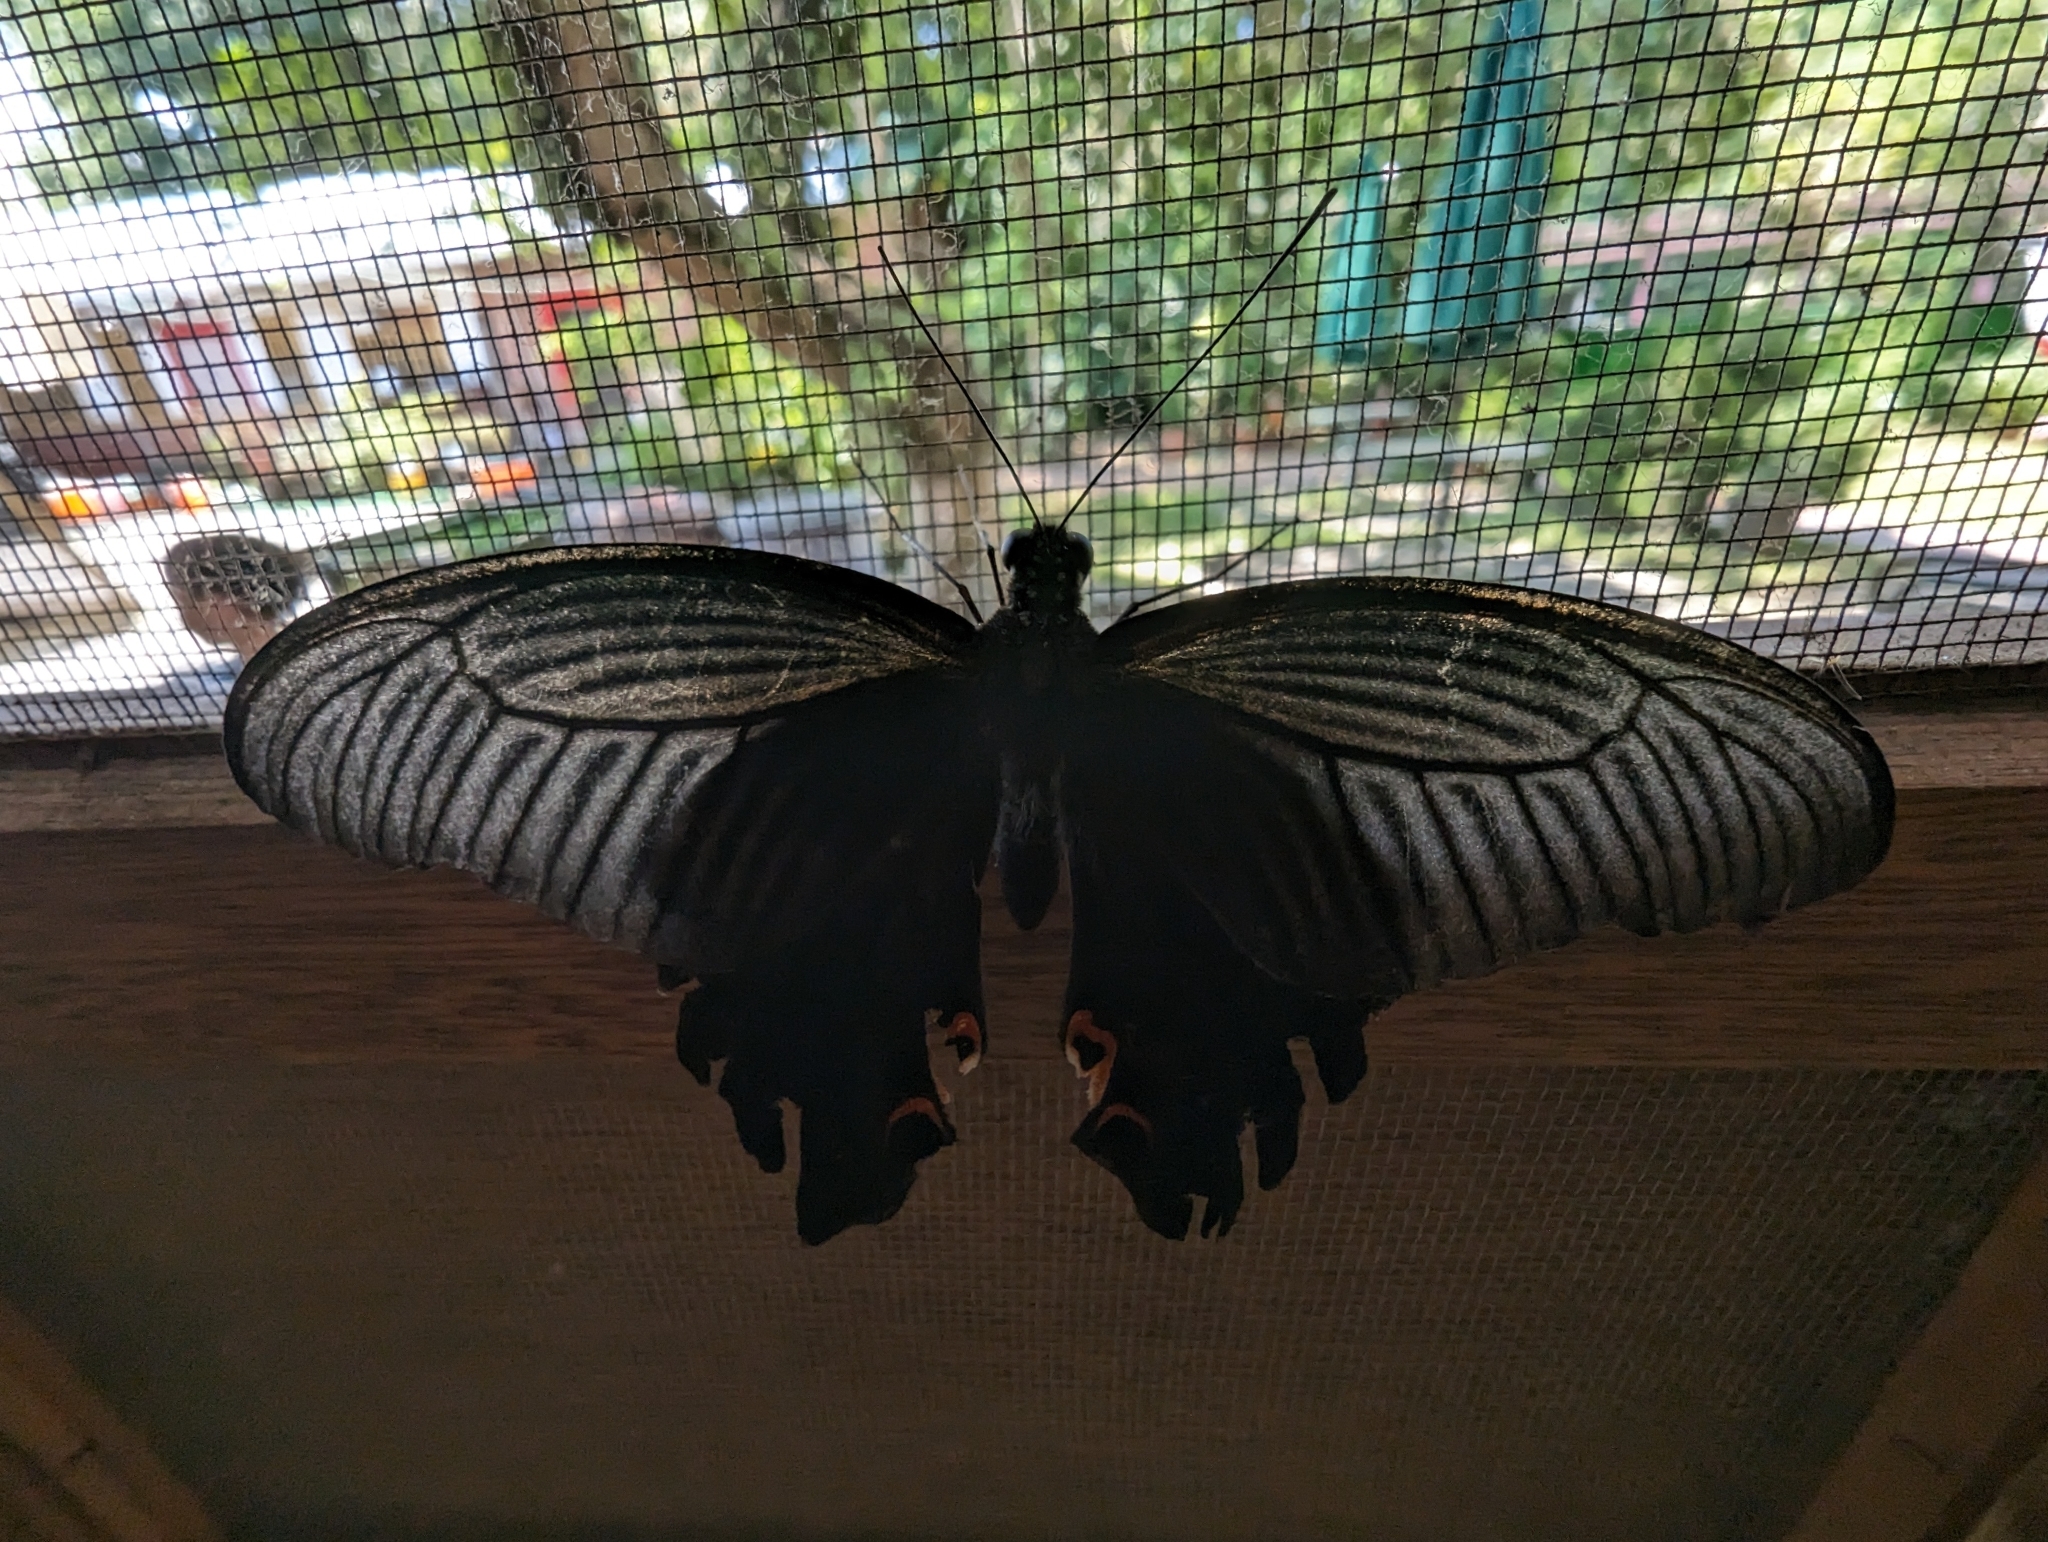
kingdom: Animalia
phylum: Arthropoda
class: Insecta
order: Lepidoptera
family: Papilionidae
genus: Papilio
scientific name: Papilio protenor
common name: Spangle
